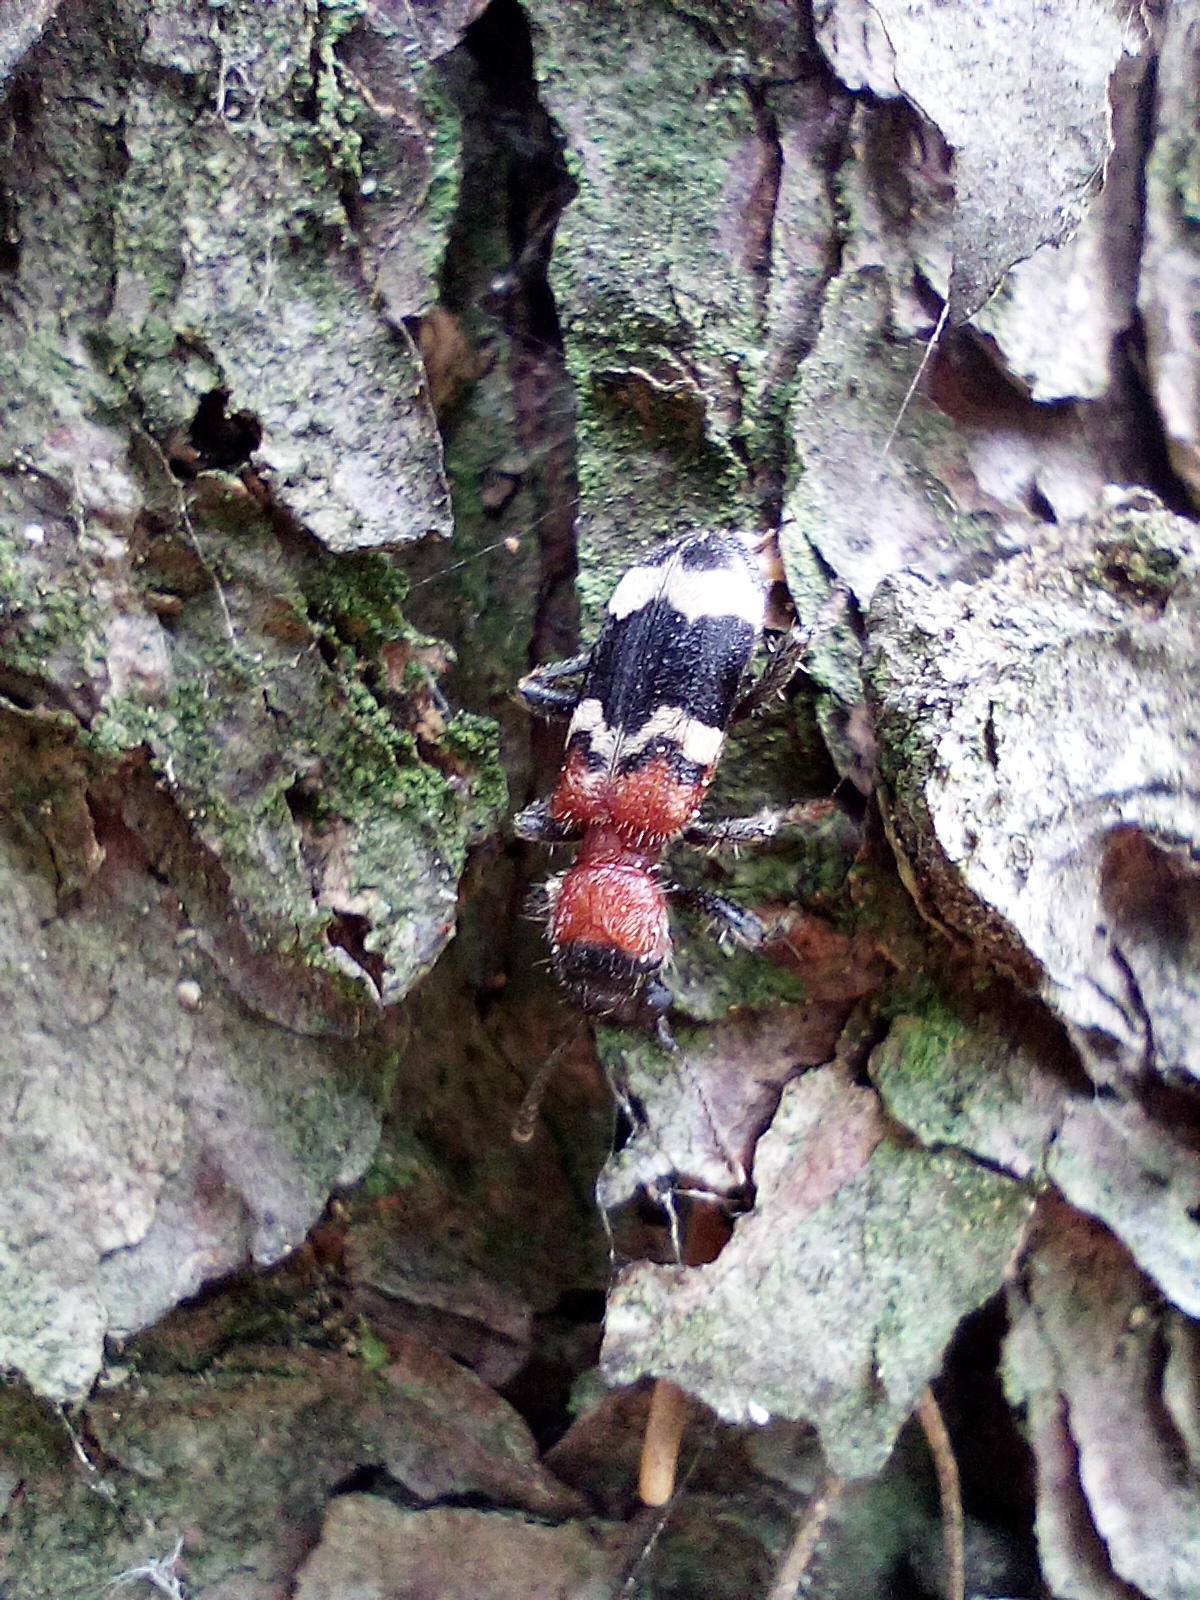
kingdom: Animalia
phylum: Arthropoda
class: Insecta
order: Coleoptera
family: Cleridae
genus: Thanasimus
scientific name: Thanasimus formicarius
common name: Ant beetle
